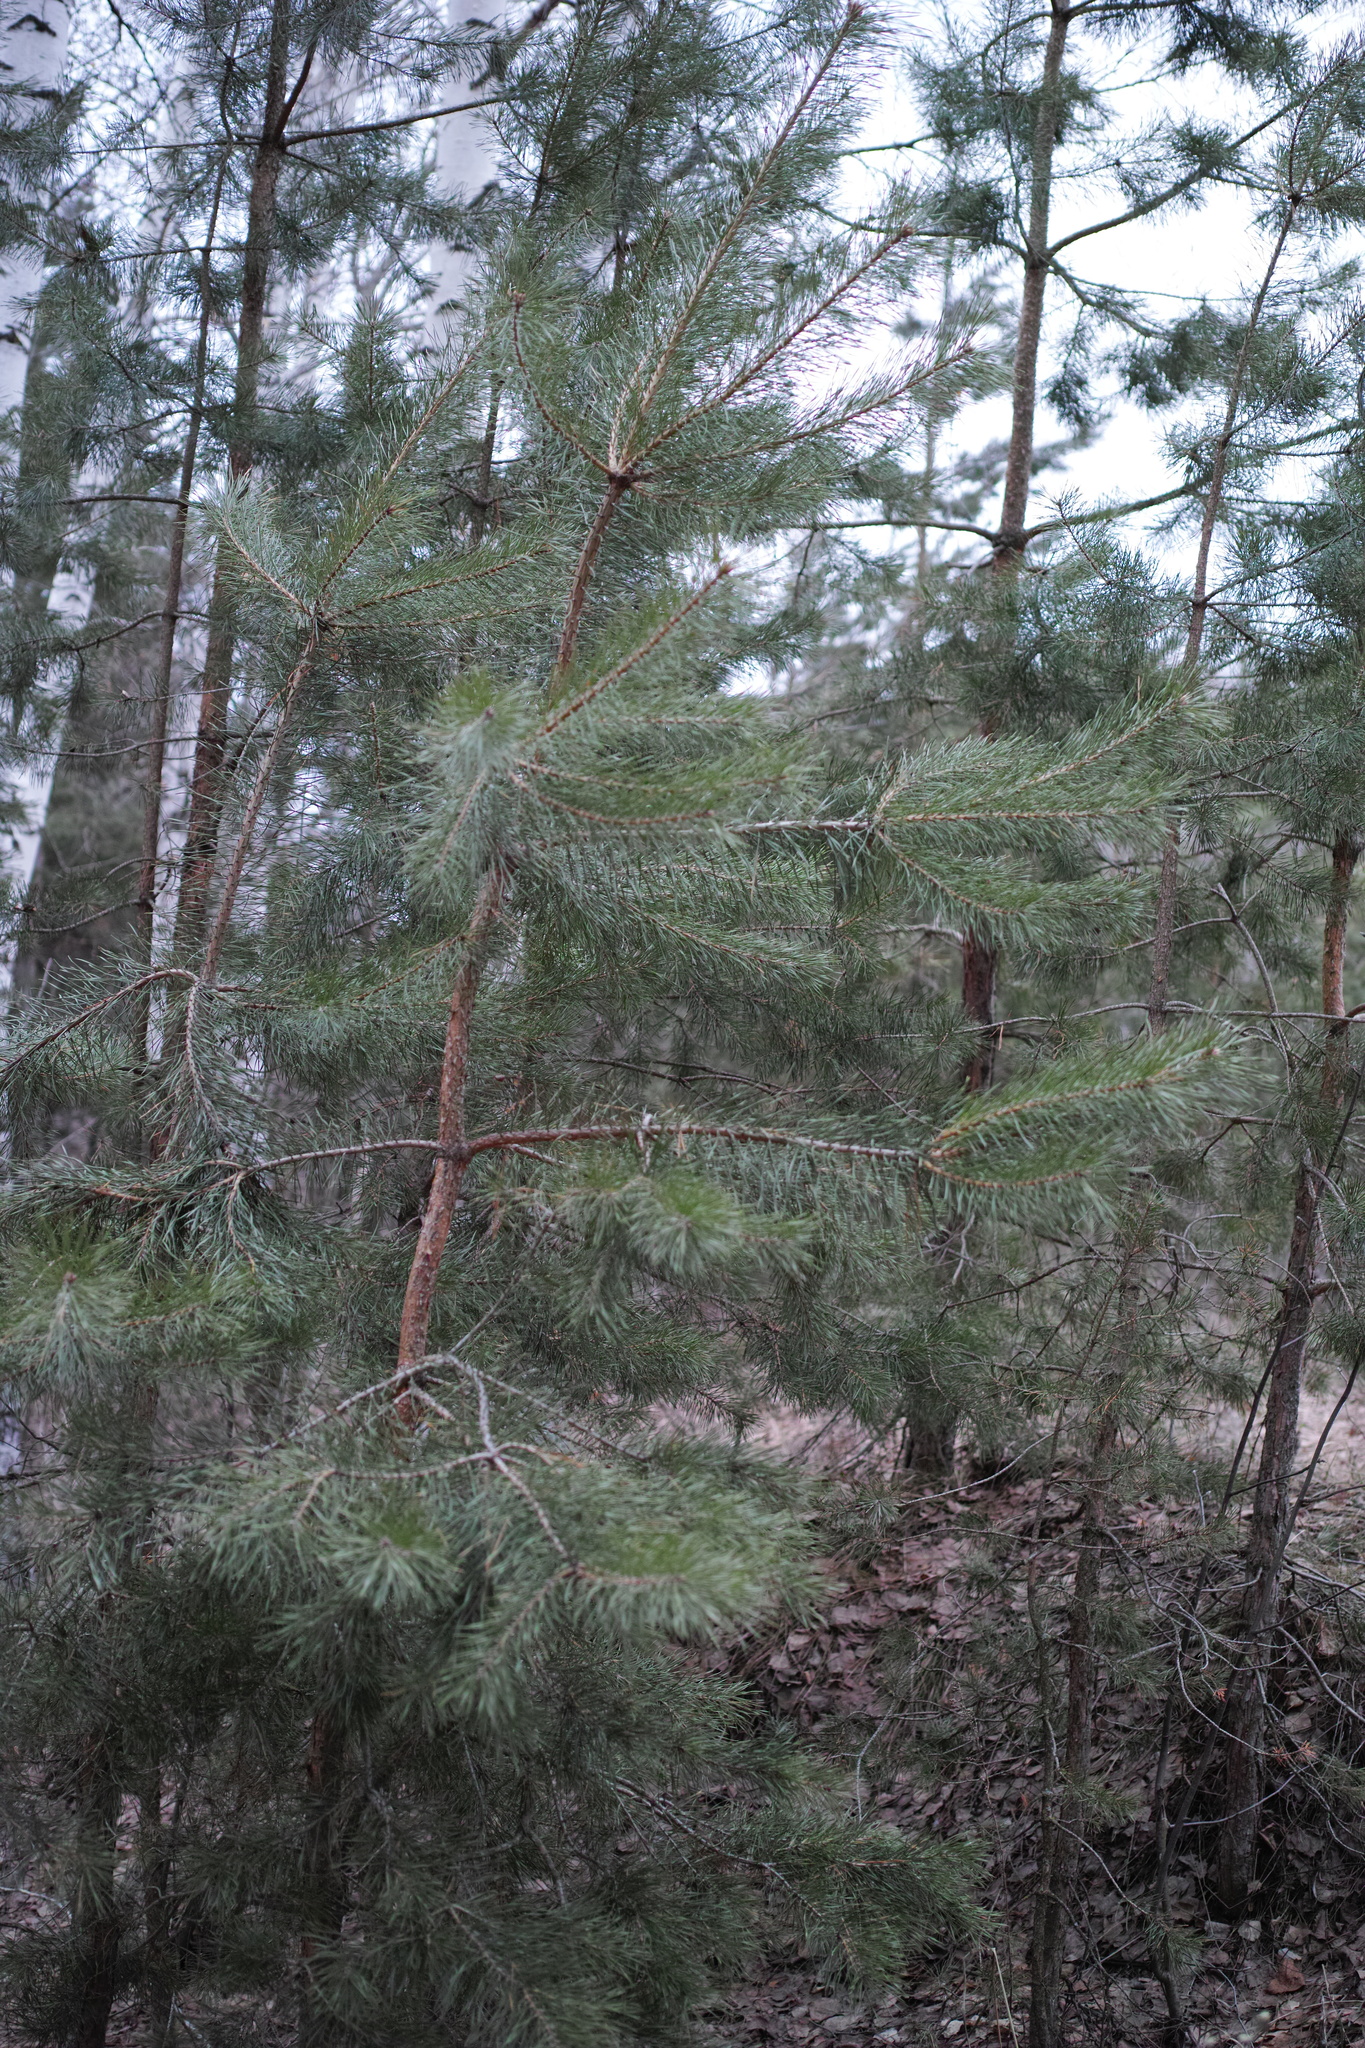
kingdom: Plantae
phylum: Tracheophyta
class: Pinopsida
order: Pinales
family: Pinaceae
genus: Pinus
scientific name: Pinus sylvestris
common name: Scots pine
